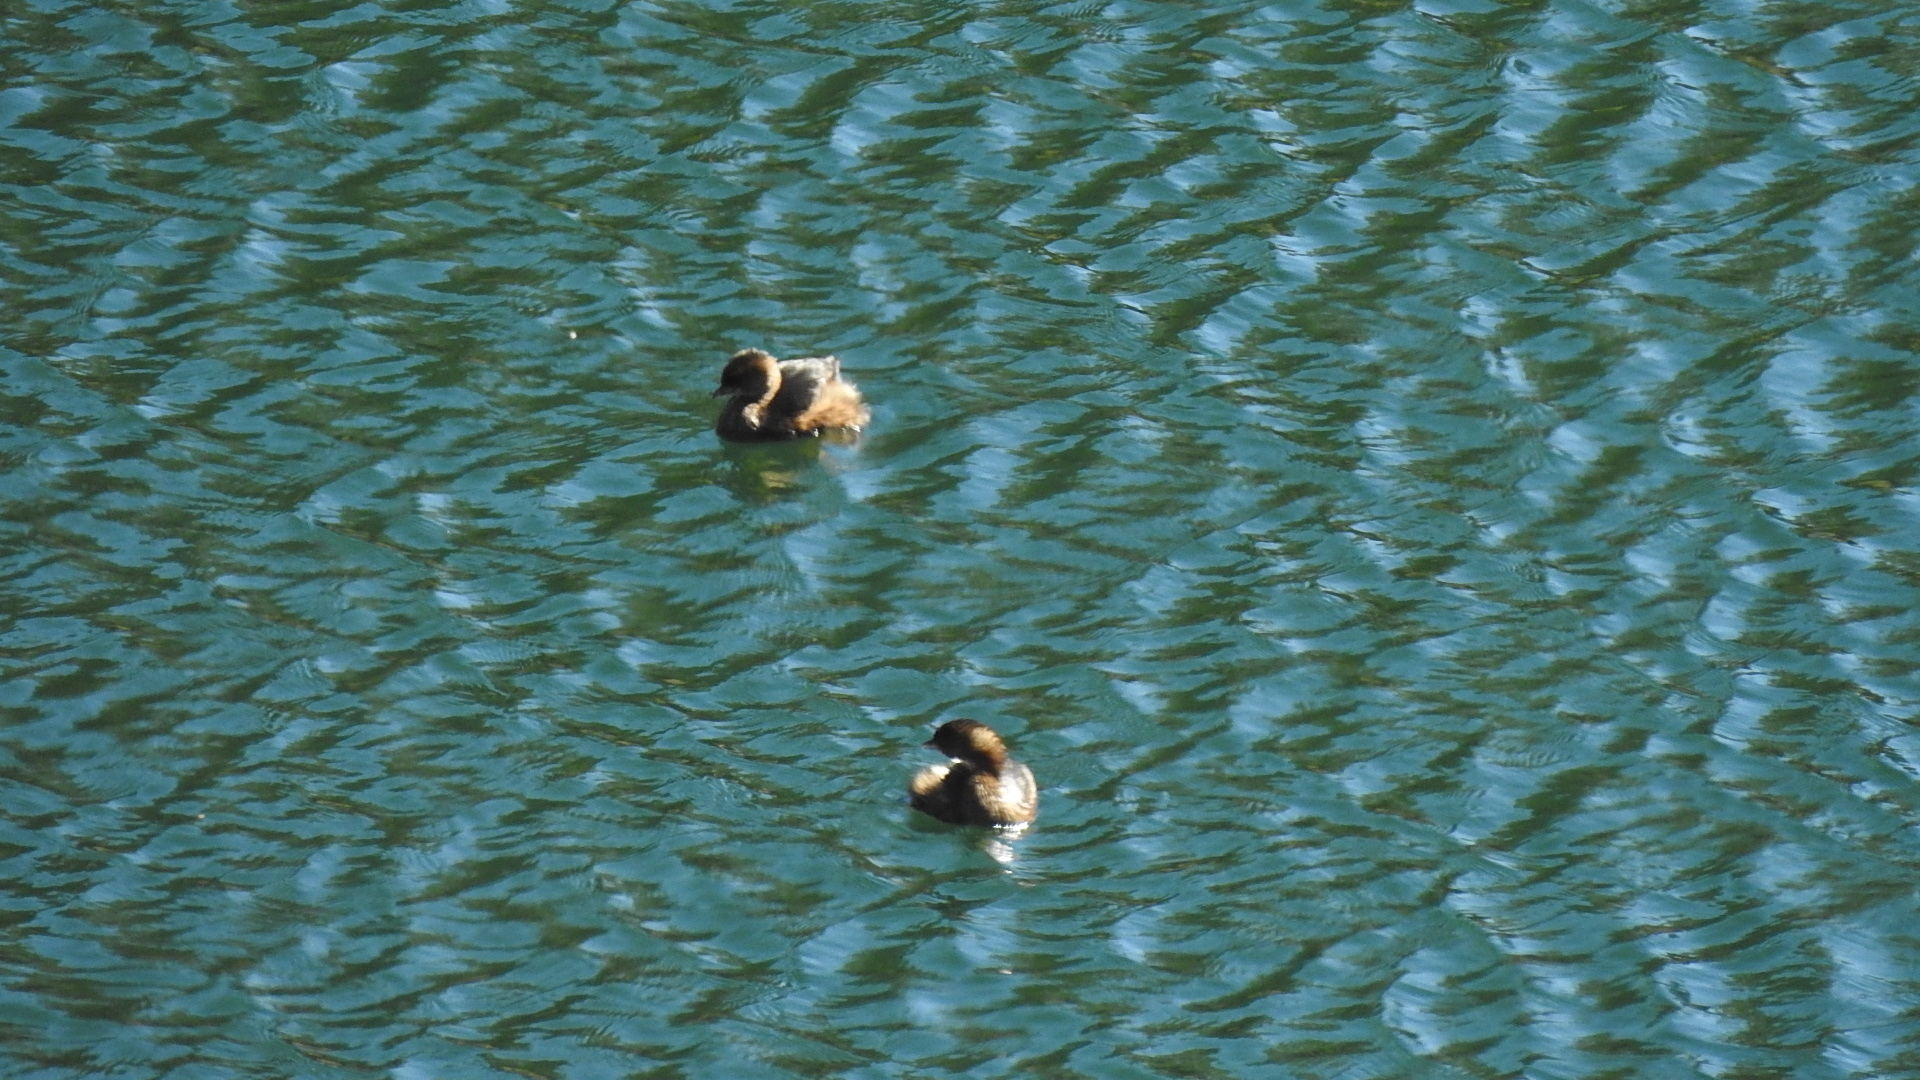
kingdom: Animalia
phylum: Chordata
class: Aves
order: Podicipediformes
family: Podicipedidae
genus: Podilymbus
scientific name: Podilymbus podiceps
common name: Pied-billed grebe
